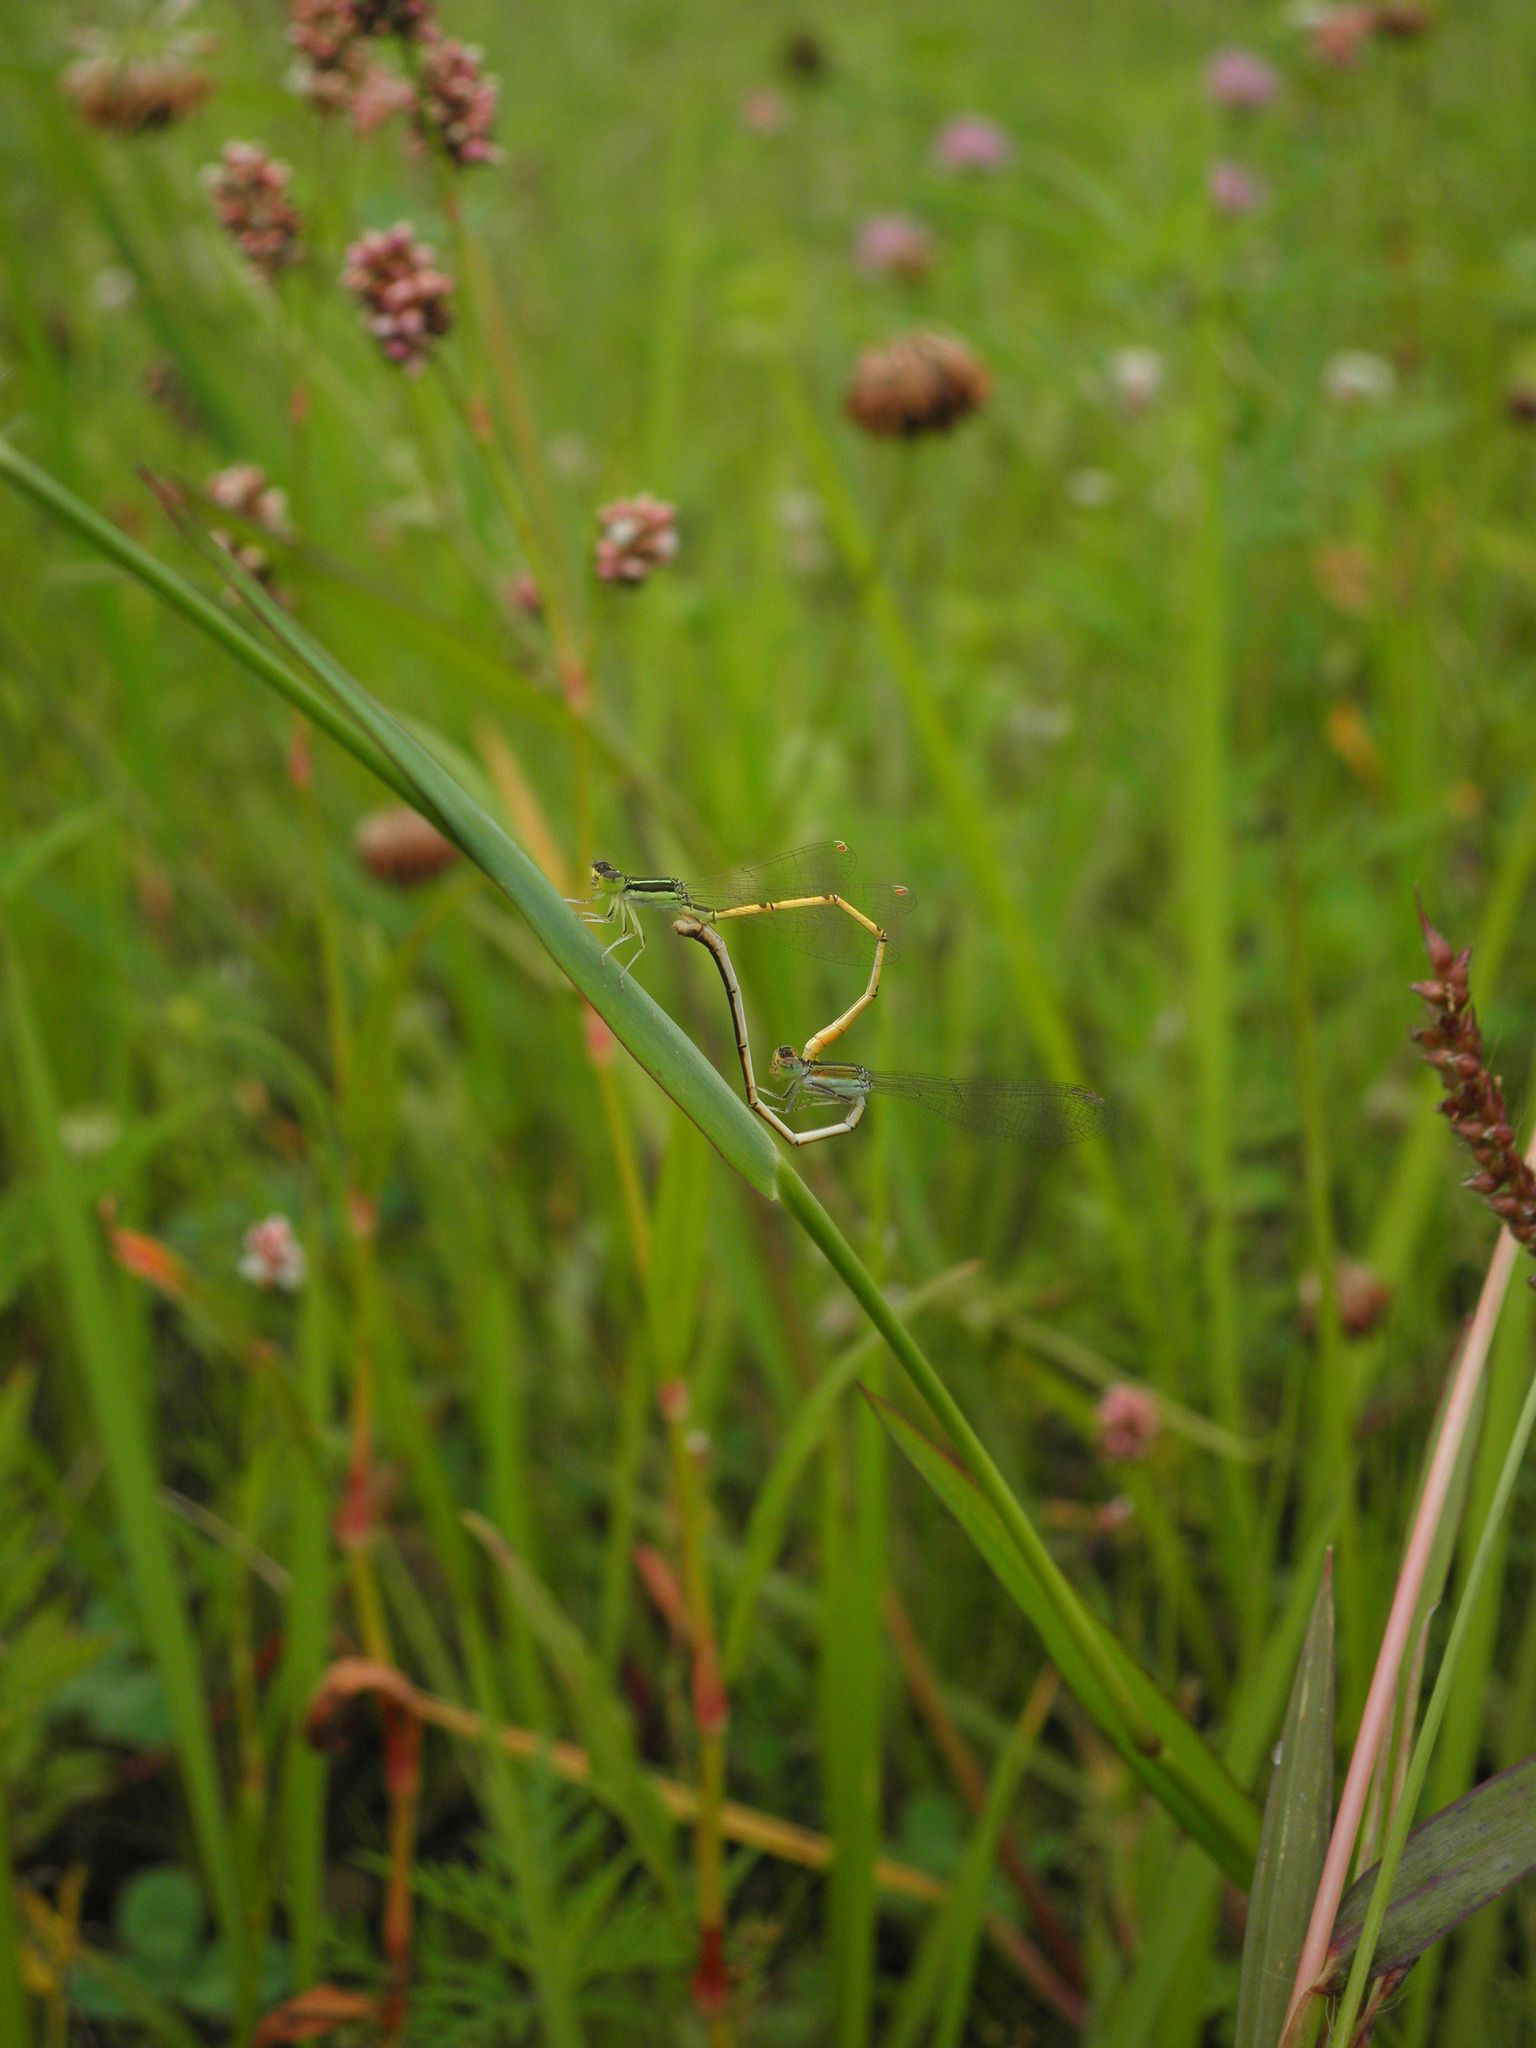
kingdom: Animalia
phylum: Arthropoda
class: Insecta
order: Odonata
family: Coenagrionidae
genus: Ischnura
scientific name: Ischnura hastata
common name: Citrine forktail
